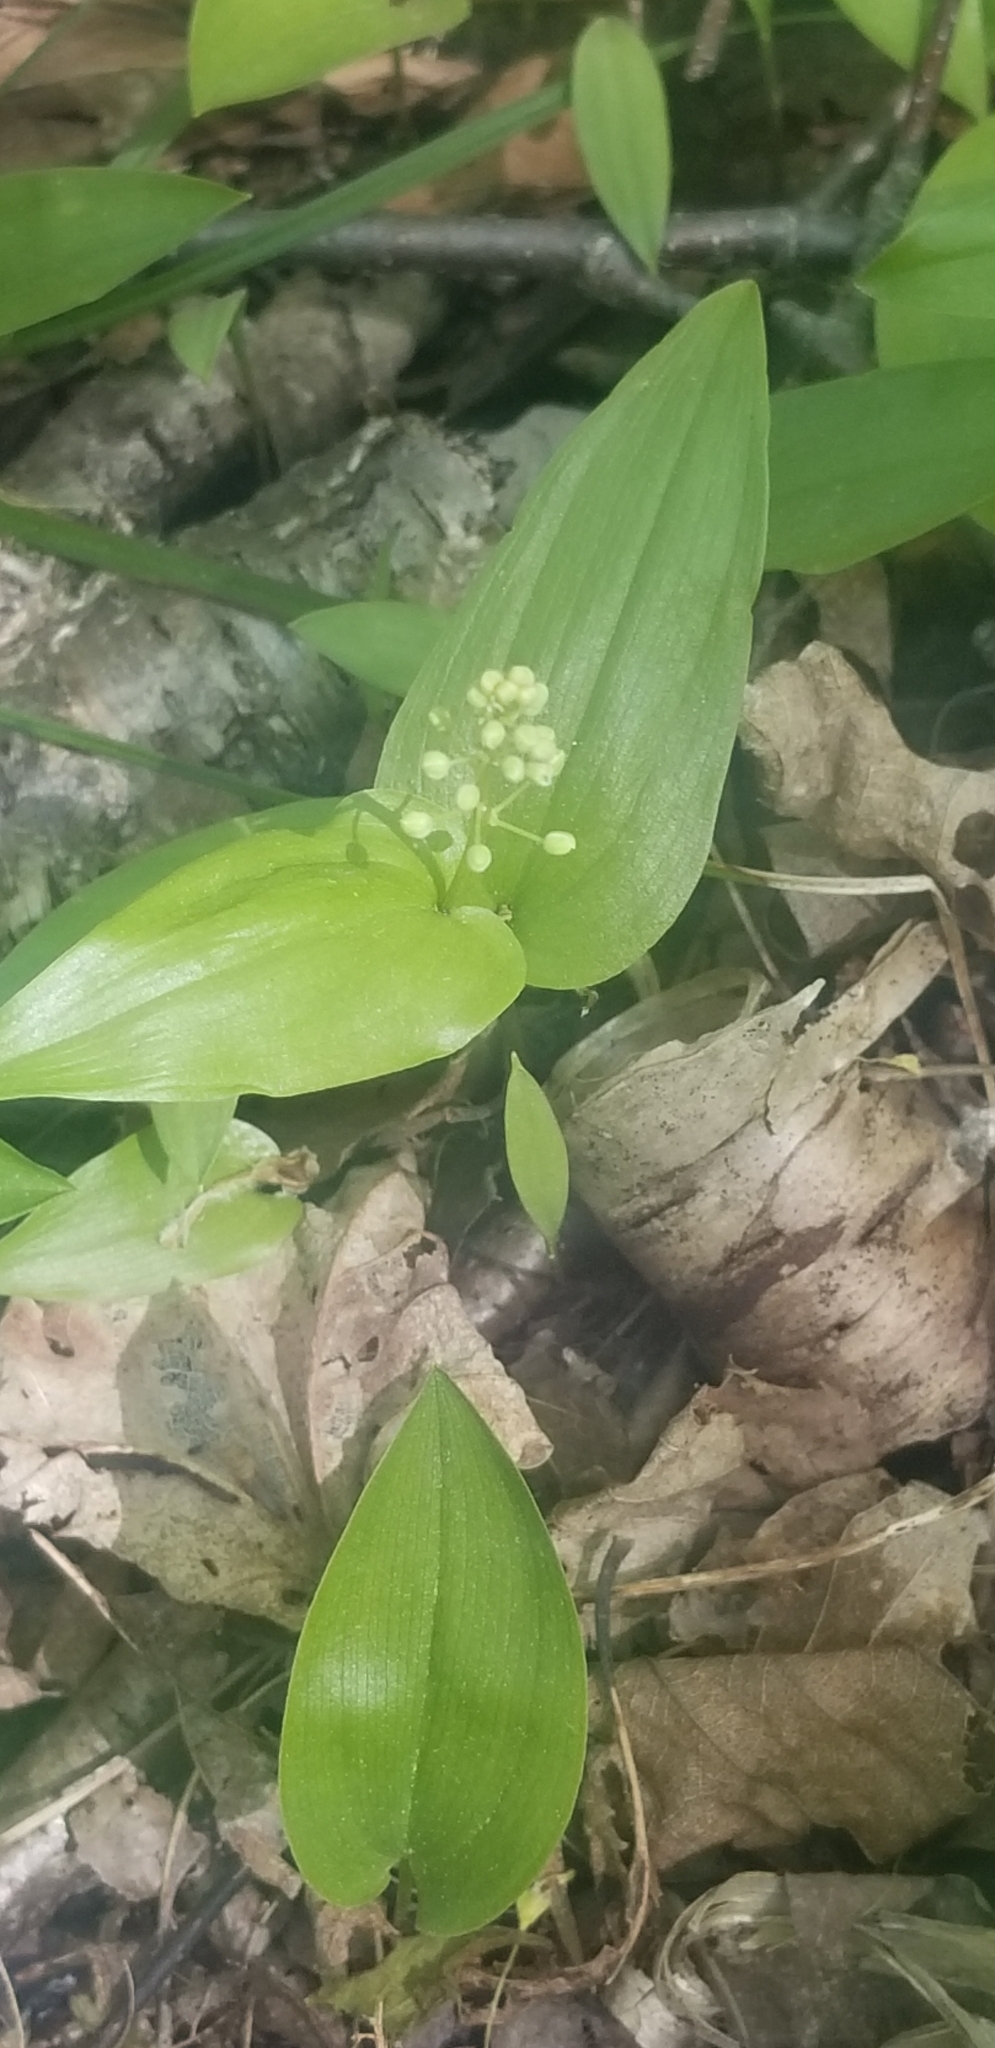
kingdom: Plantae
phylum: Tracheophyta
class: Liliopsida
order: Asparagales
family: Asparagaceae
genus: Maianthemum
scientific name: Maianthemum canadense
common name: False lily-of-the-valley
